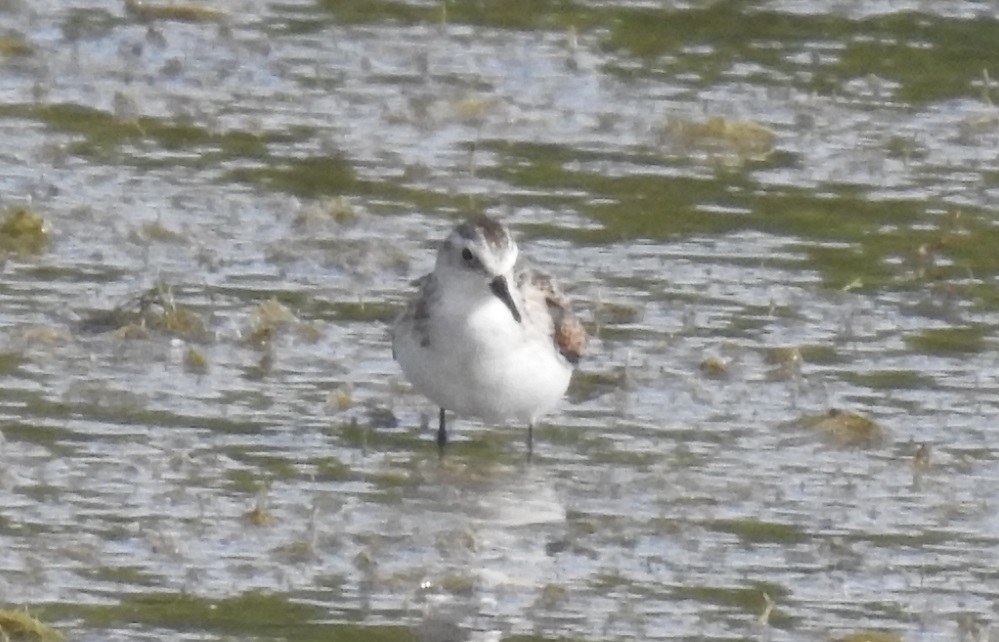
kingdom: Animalia
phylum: Chordata
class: Aves
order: Charadriiformes
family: Scolopacidae
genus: Calidris
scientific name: Calidris minuta
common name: Little stint
